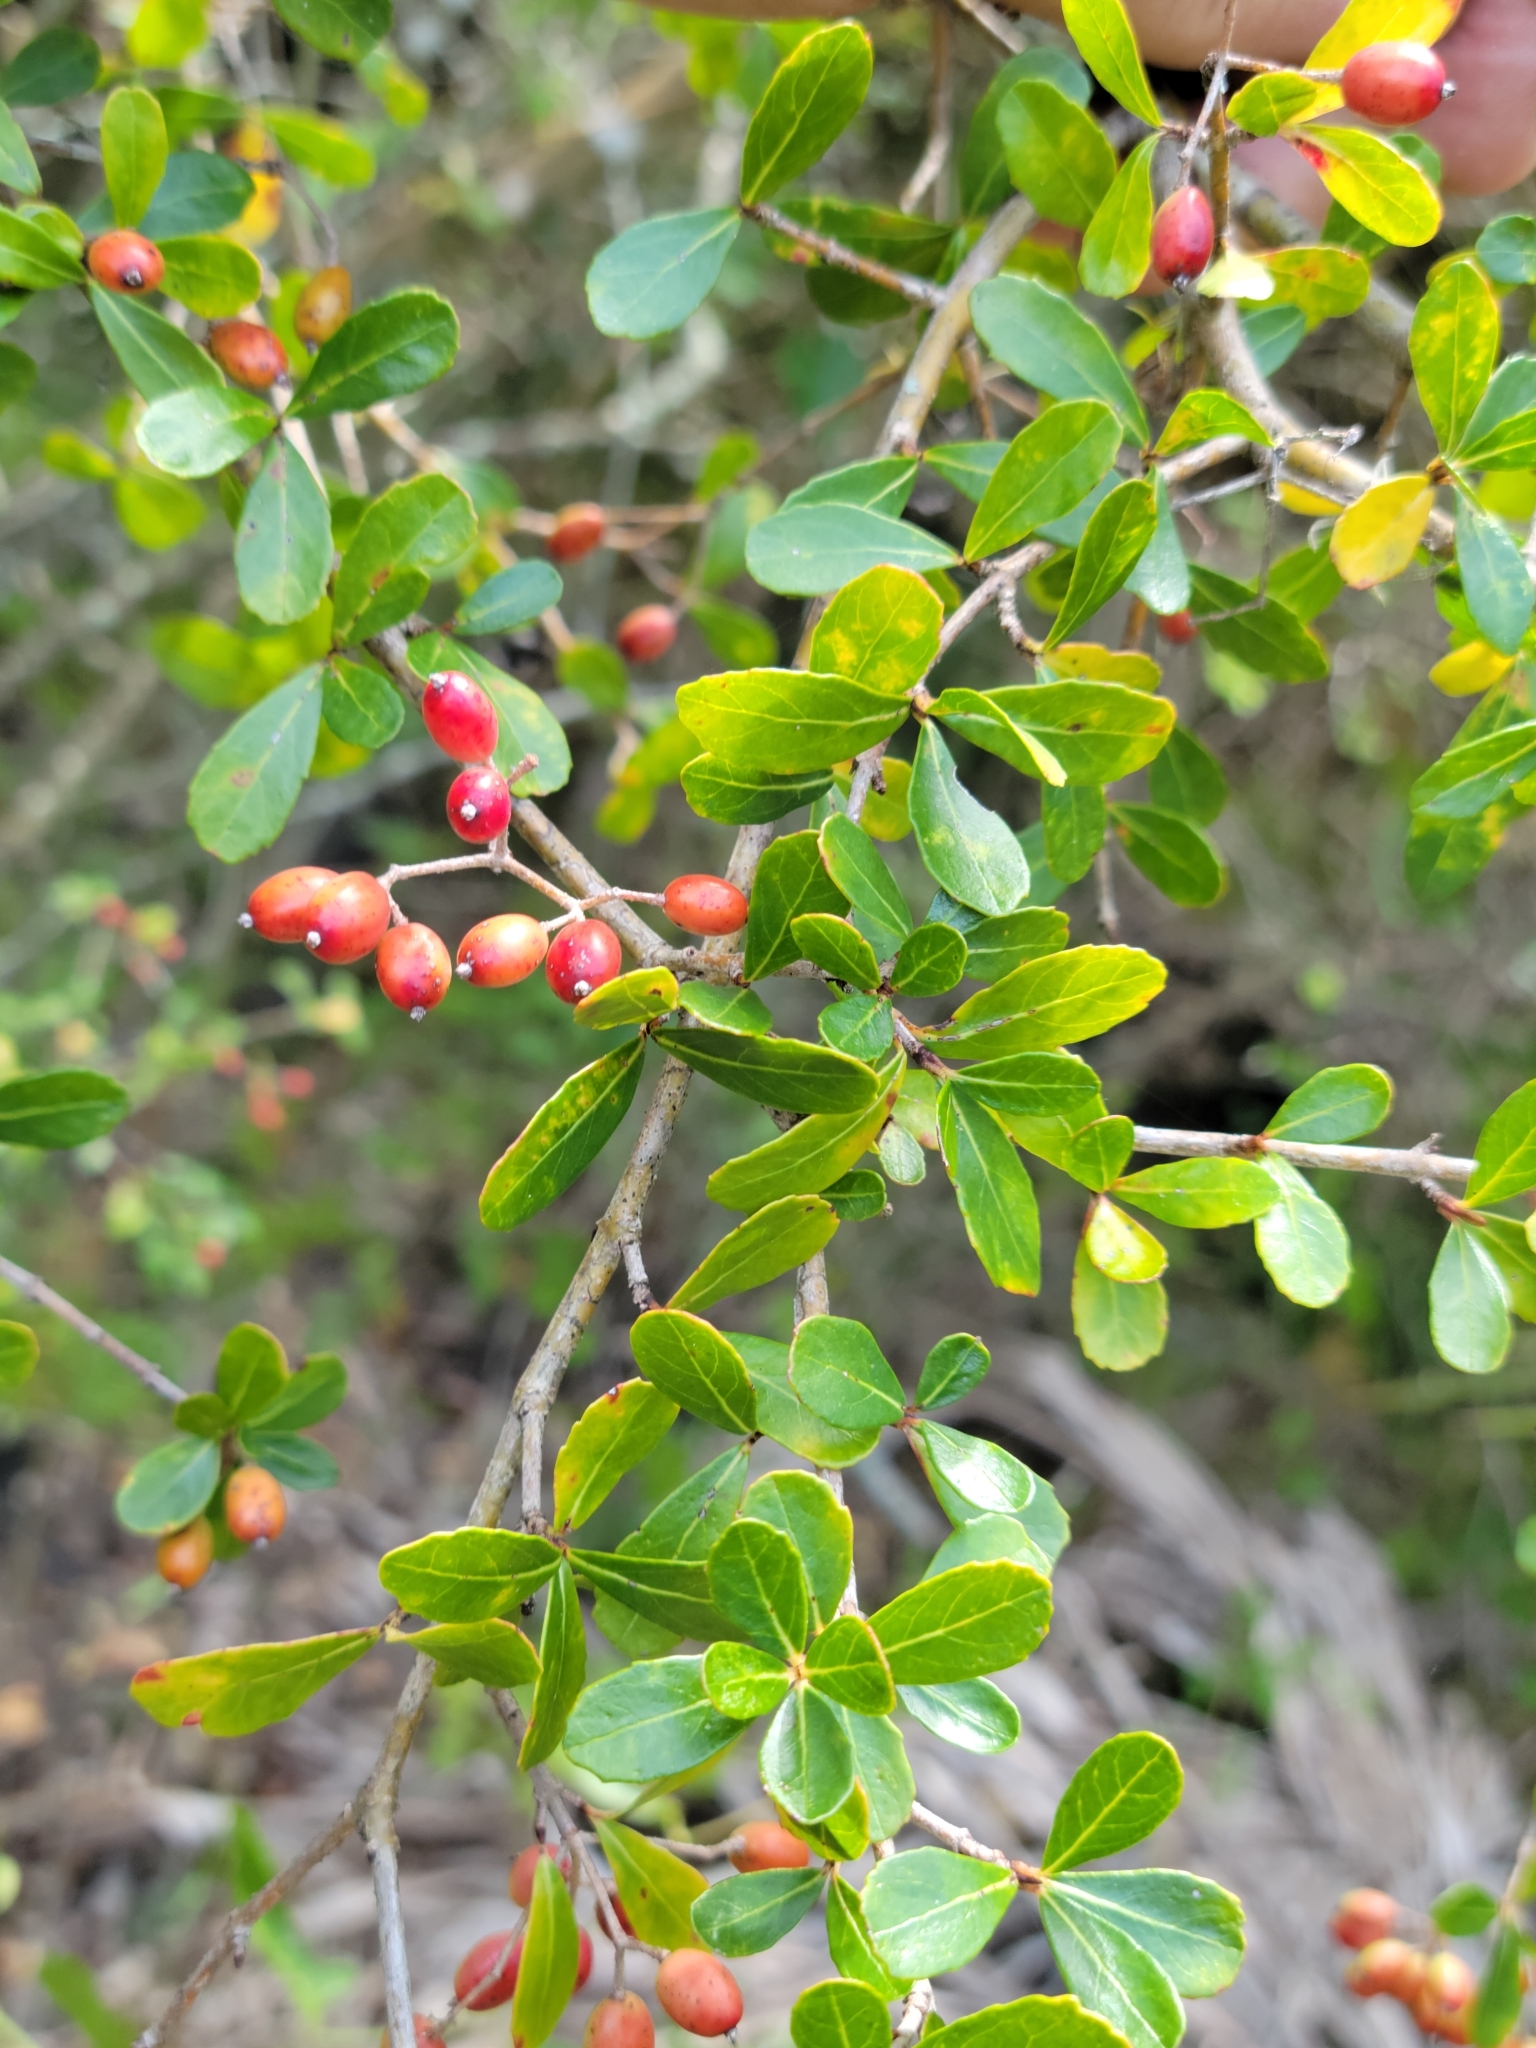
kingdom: Plantae
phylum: Tracheophyta
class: Magnoliopsida
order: Dipsacales
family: Viburnaceae
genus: Viburnum
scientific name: Viburnum obovatum
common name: Walter's viburnum
